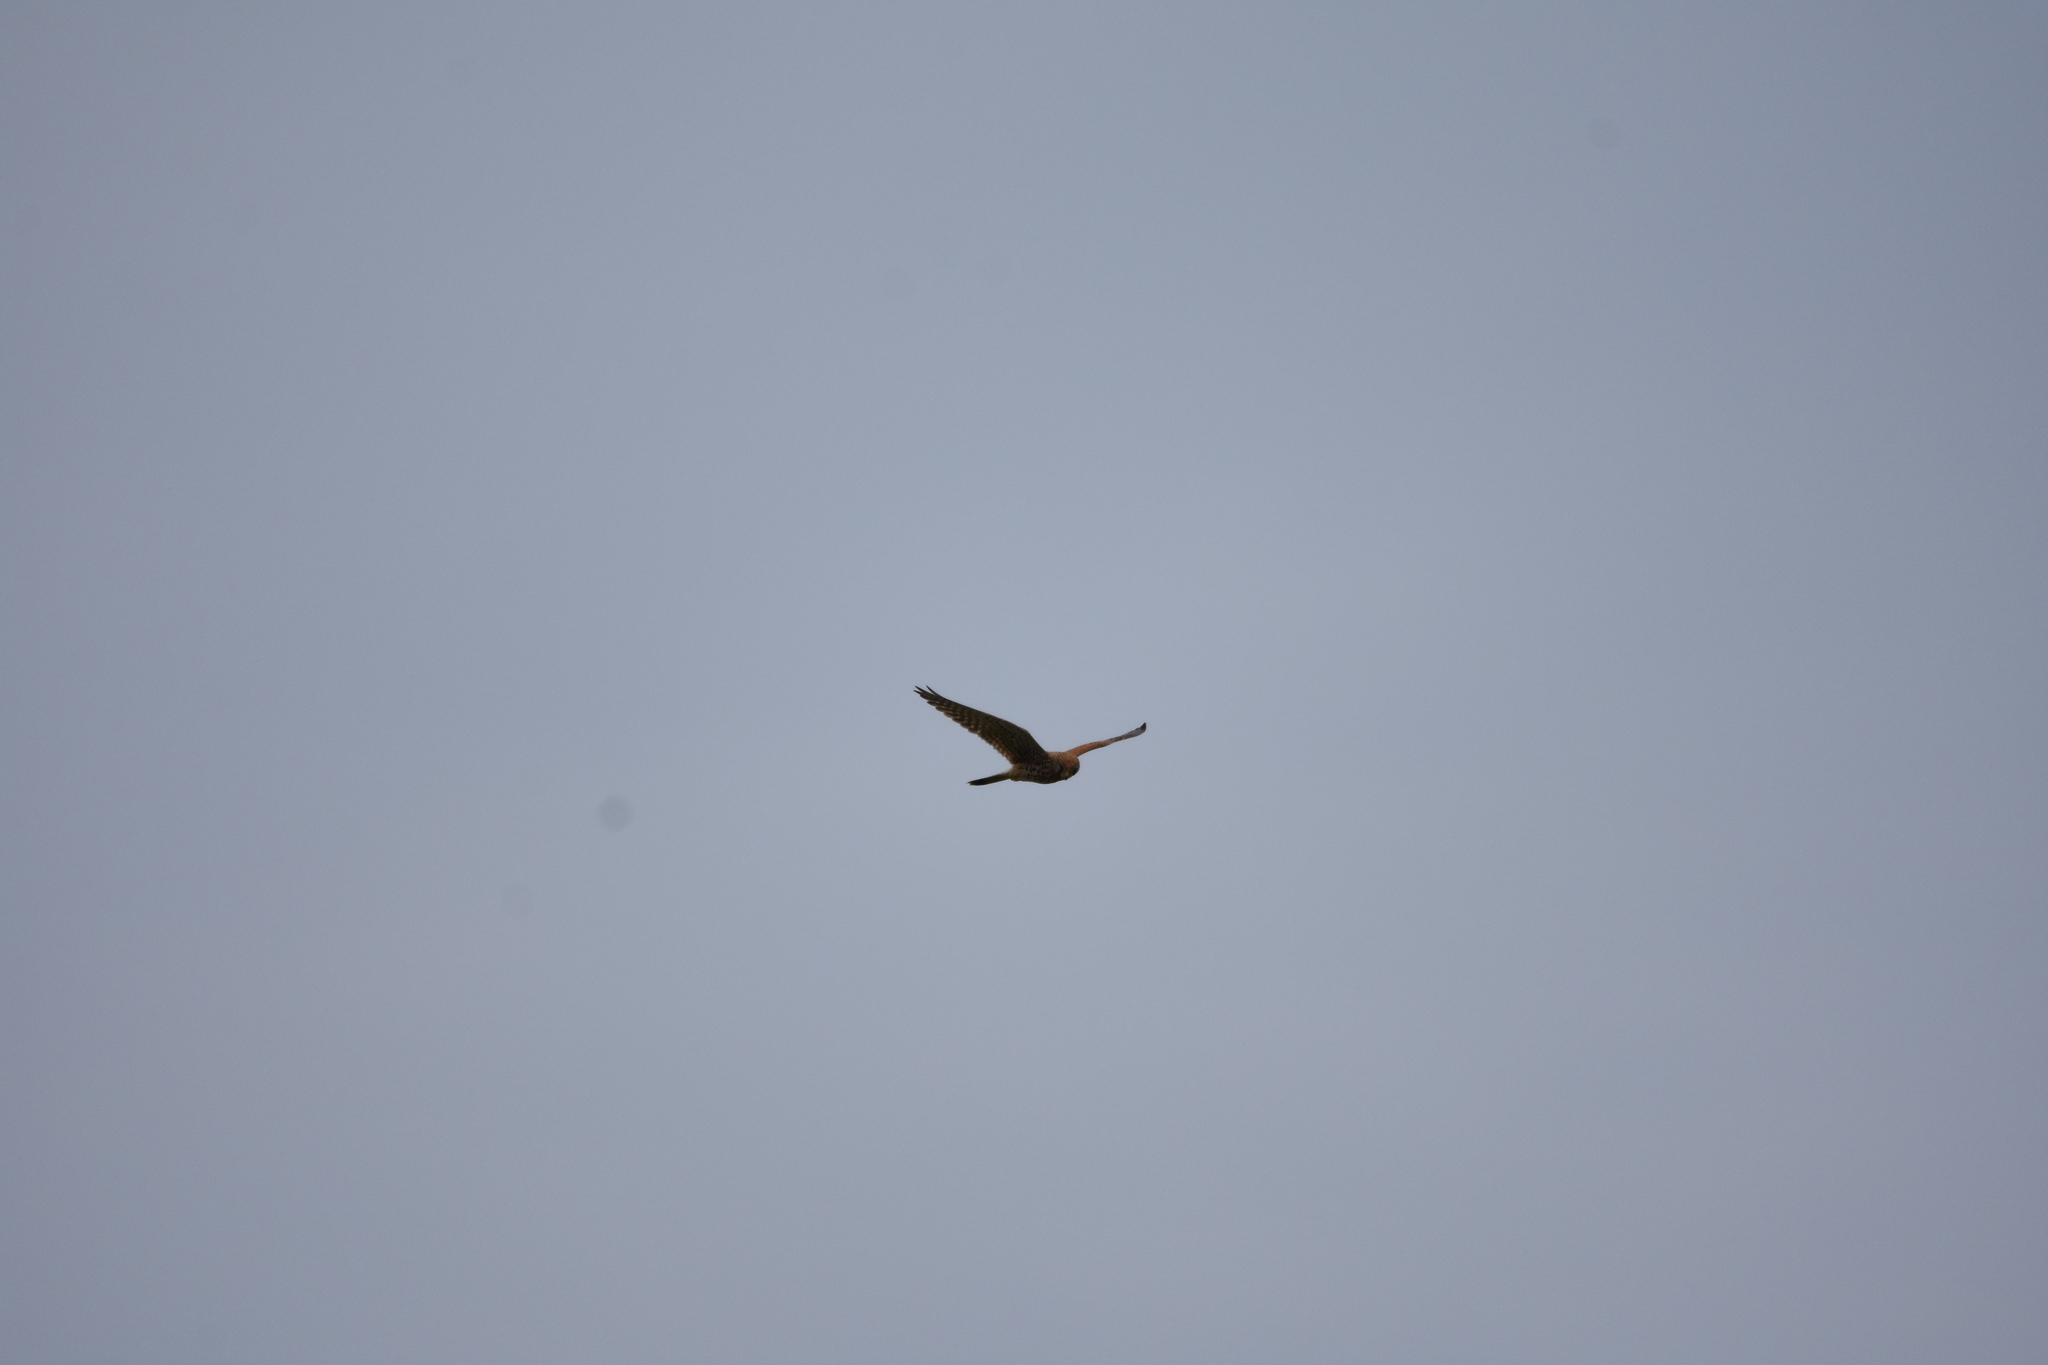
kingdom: Animalia
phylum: Chordata
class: Aves
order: Falconiformes
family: Falconidae
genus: Falco
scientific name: Falco tinnunculus
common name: Common kestrel
